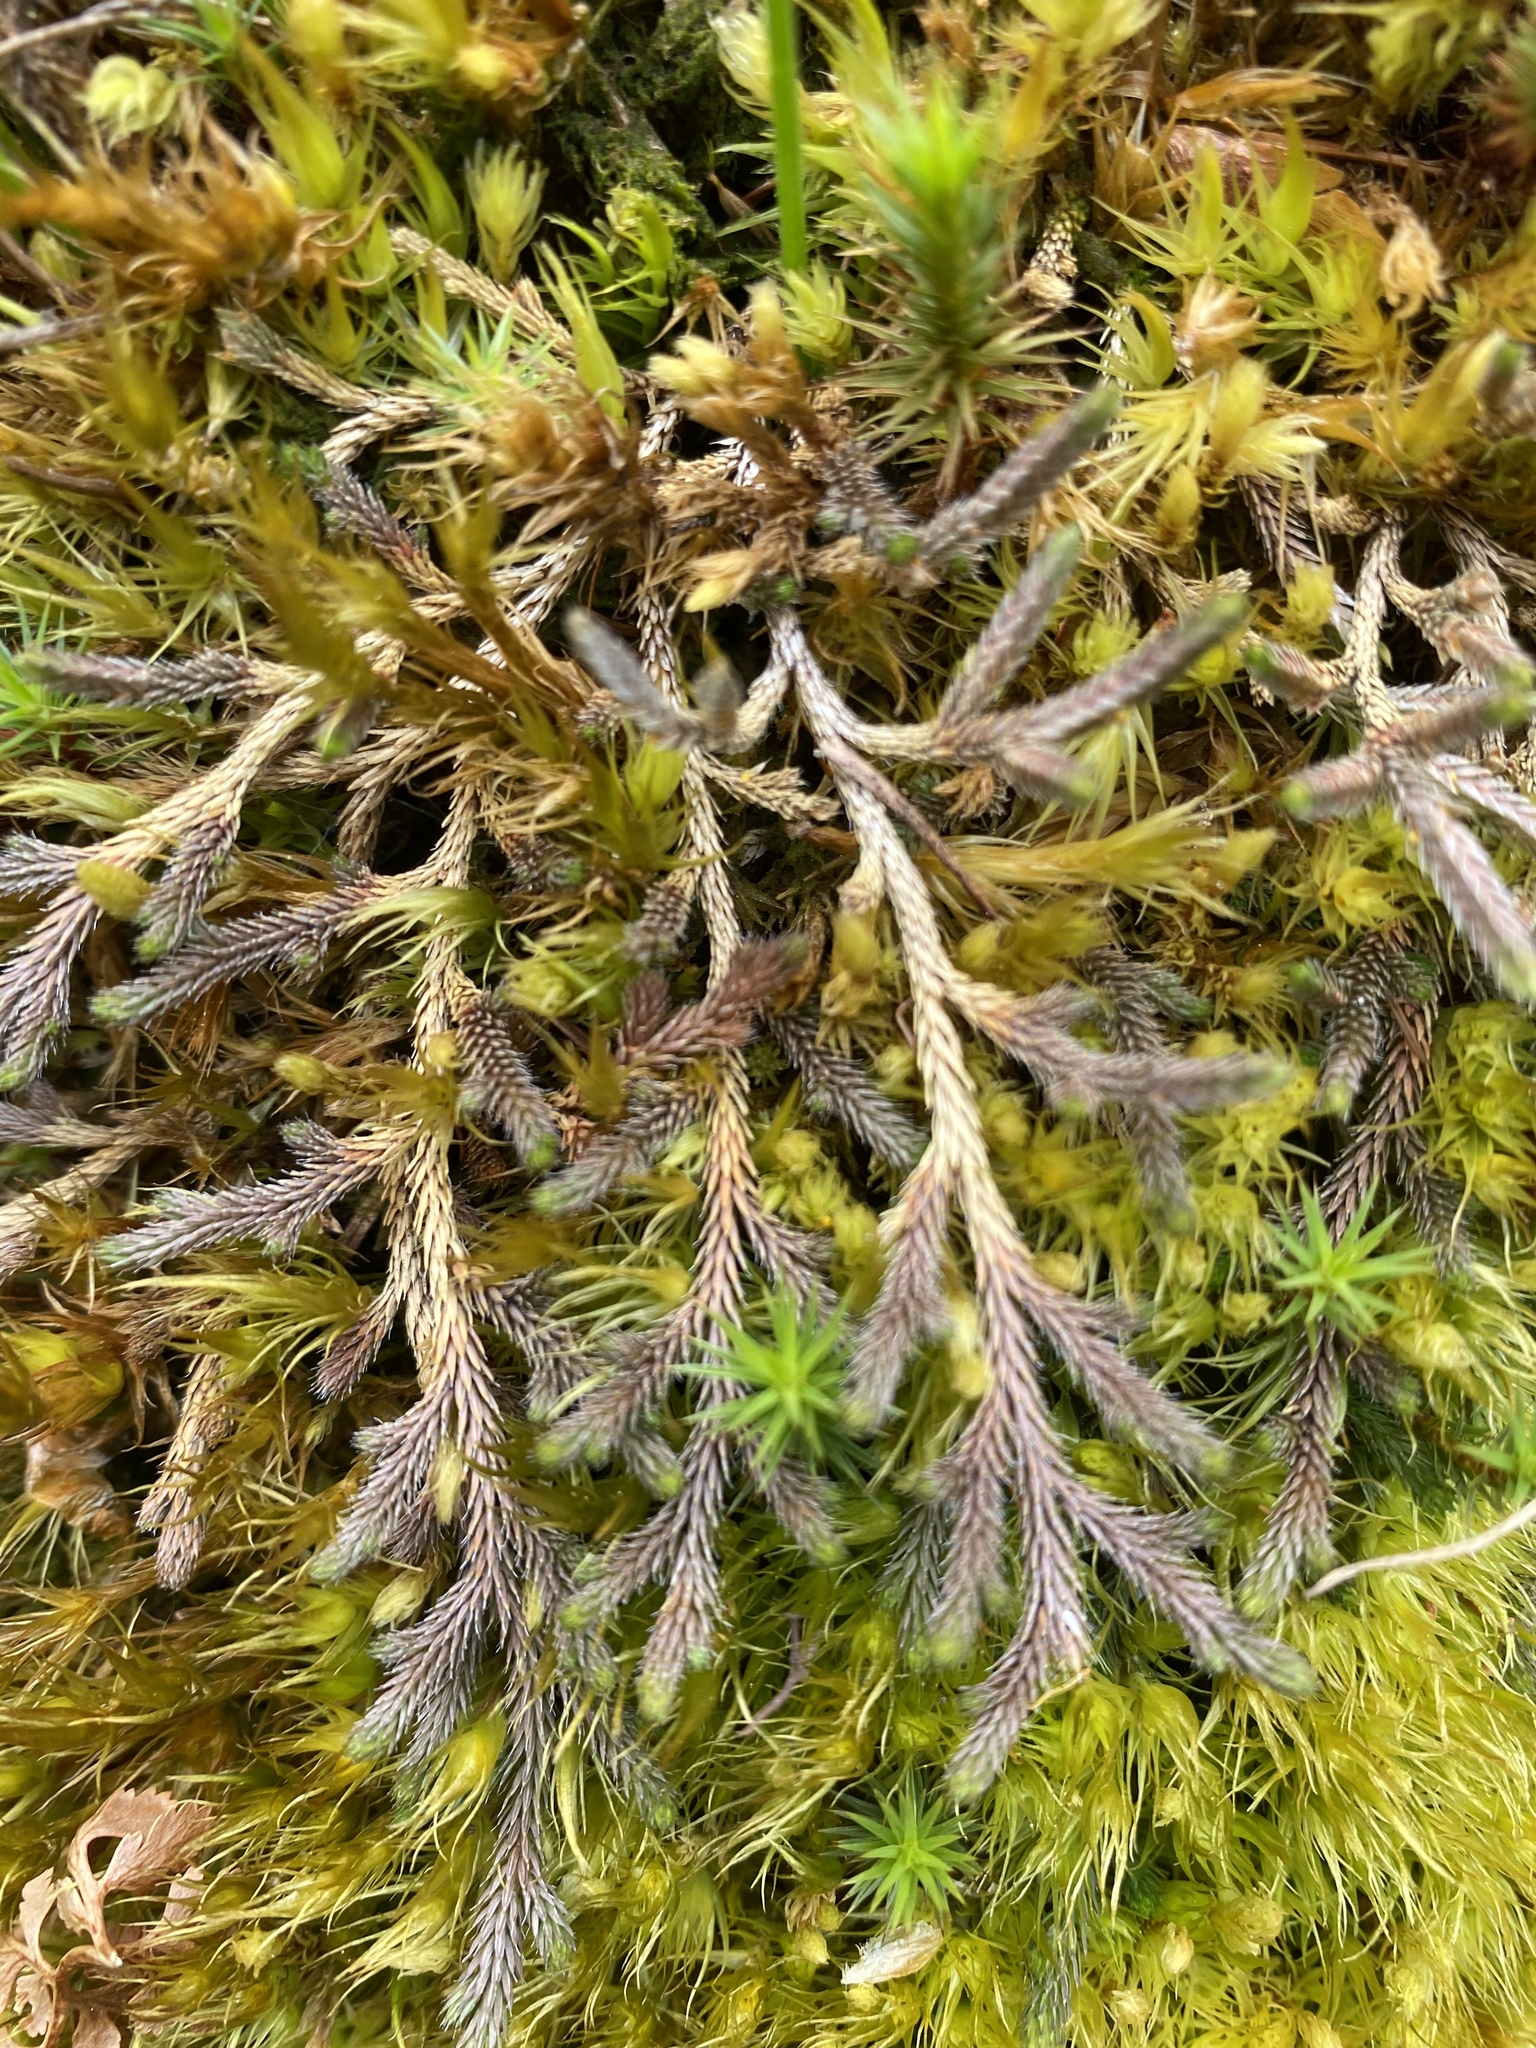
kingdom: Plantae
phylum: Tracheophyta
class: Lycopodiopsida
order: Selaginellales
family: Selaginellaceae
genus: Selaginella
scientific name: Selaginella wallacei
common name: Wallace's selaginella
